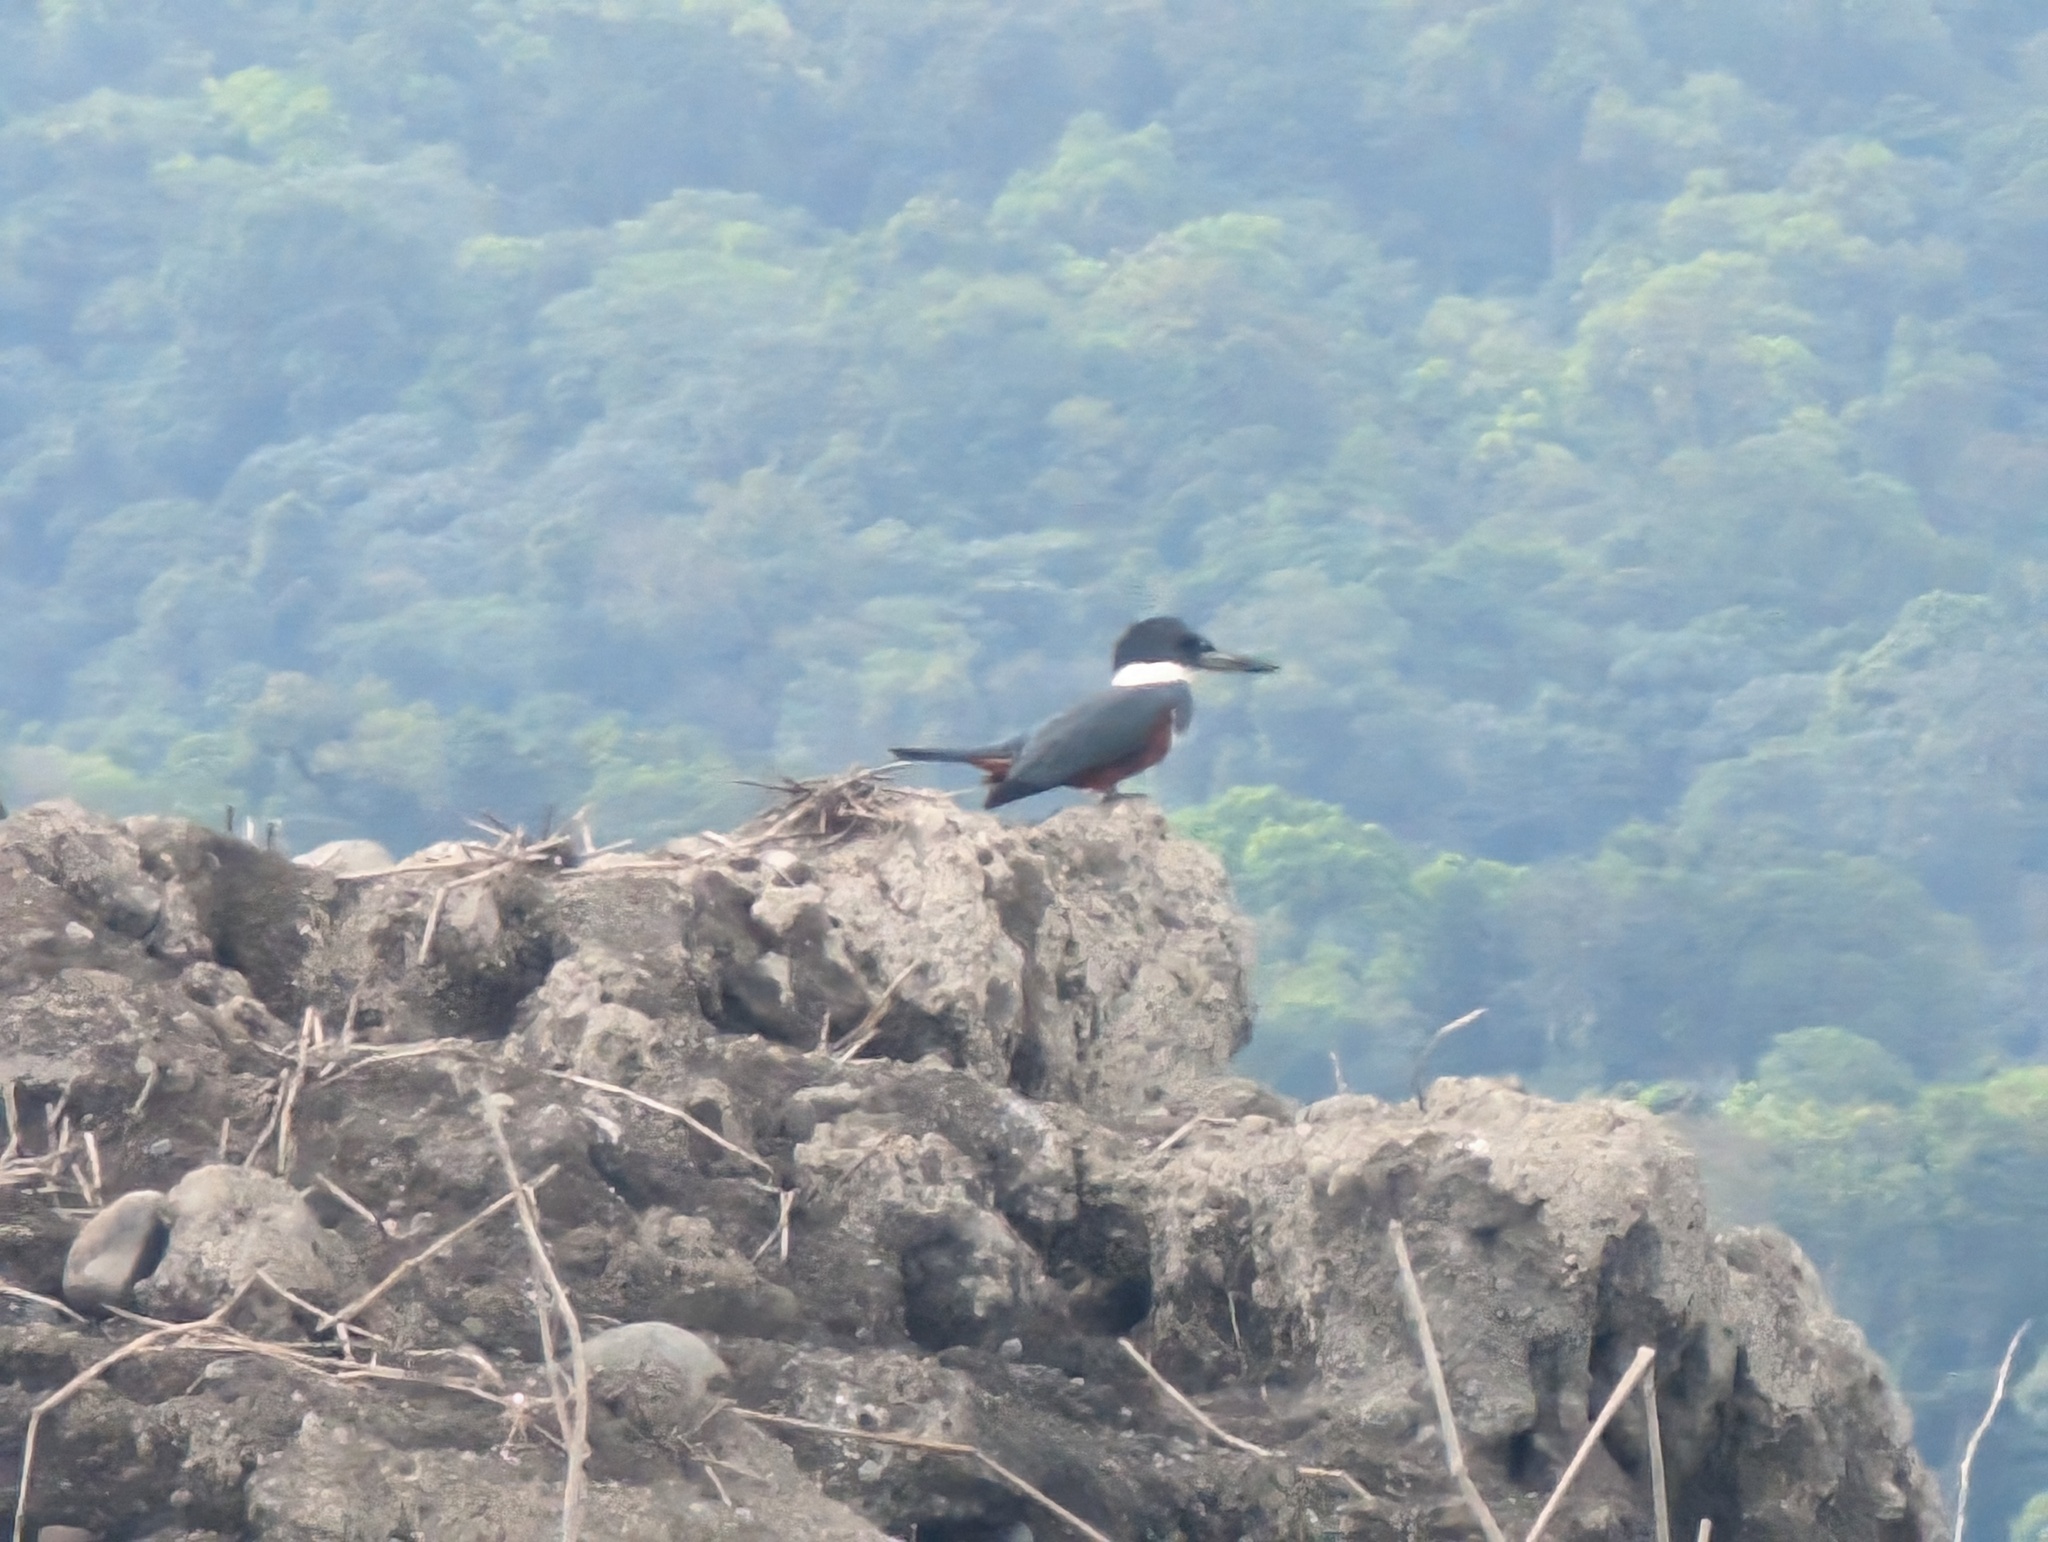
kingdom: Animalia
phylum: Chordata
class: Aves
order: Coraciiformes
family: Alcedinidae
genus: Megaceryle
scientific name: Megaceryle torquata
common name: Ringed kingfisher
